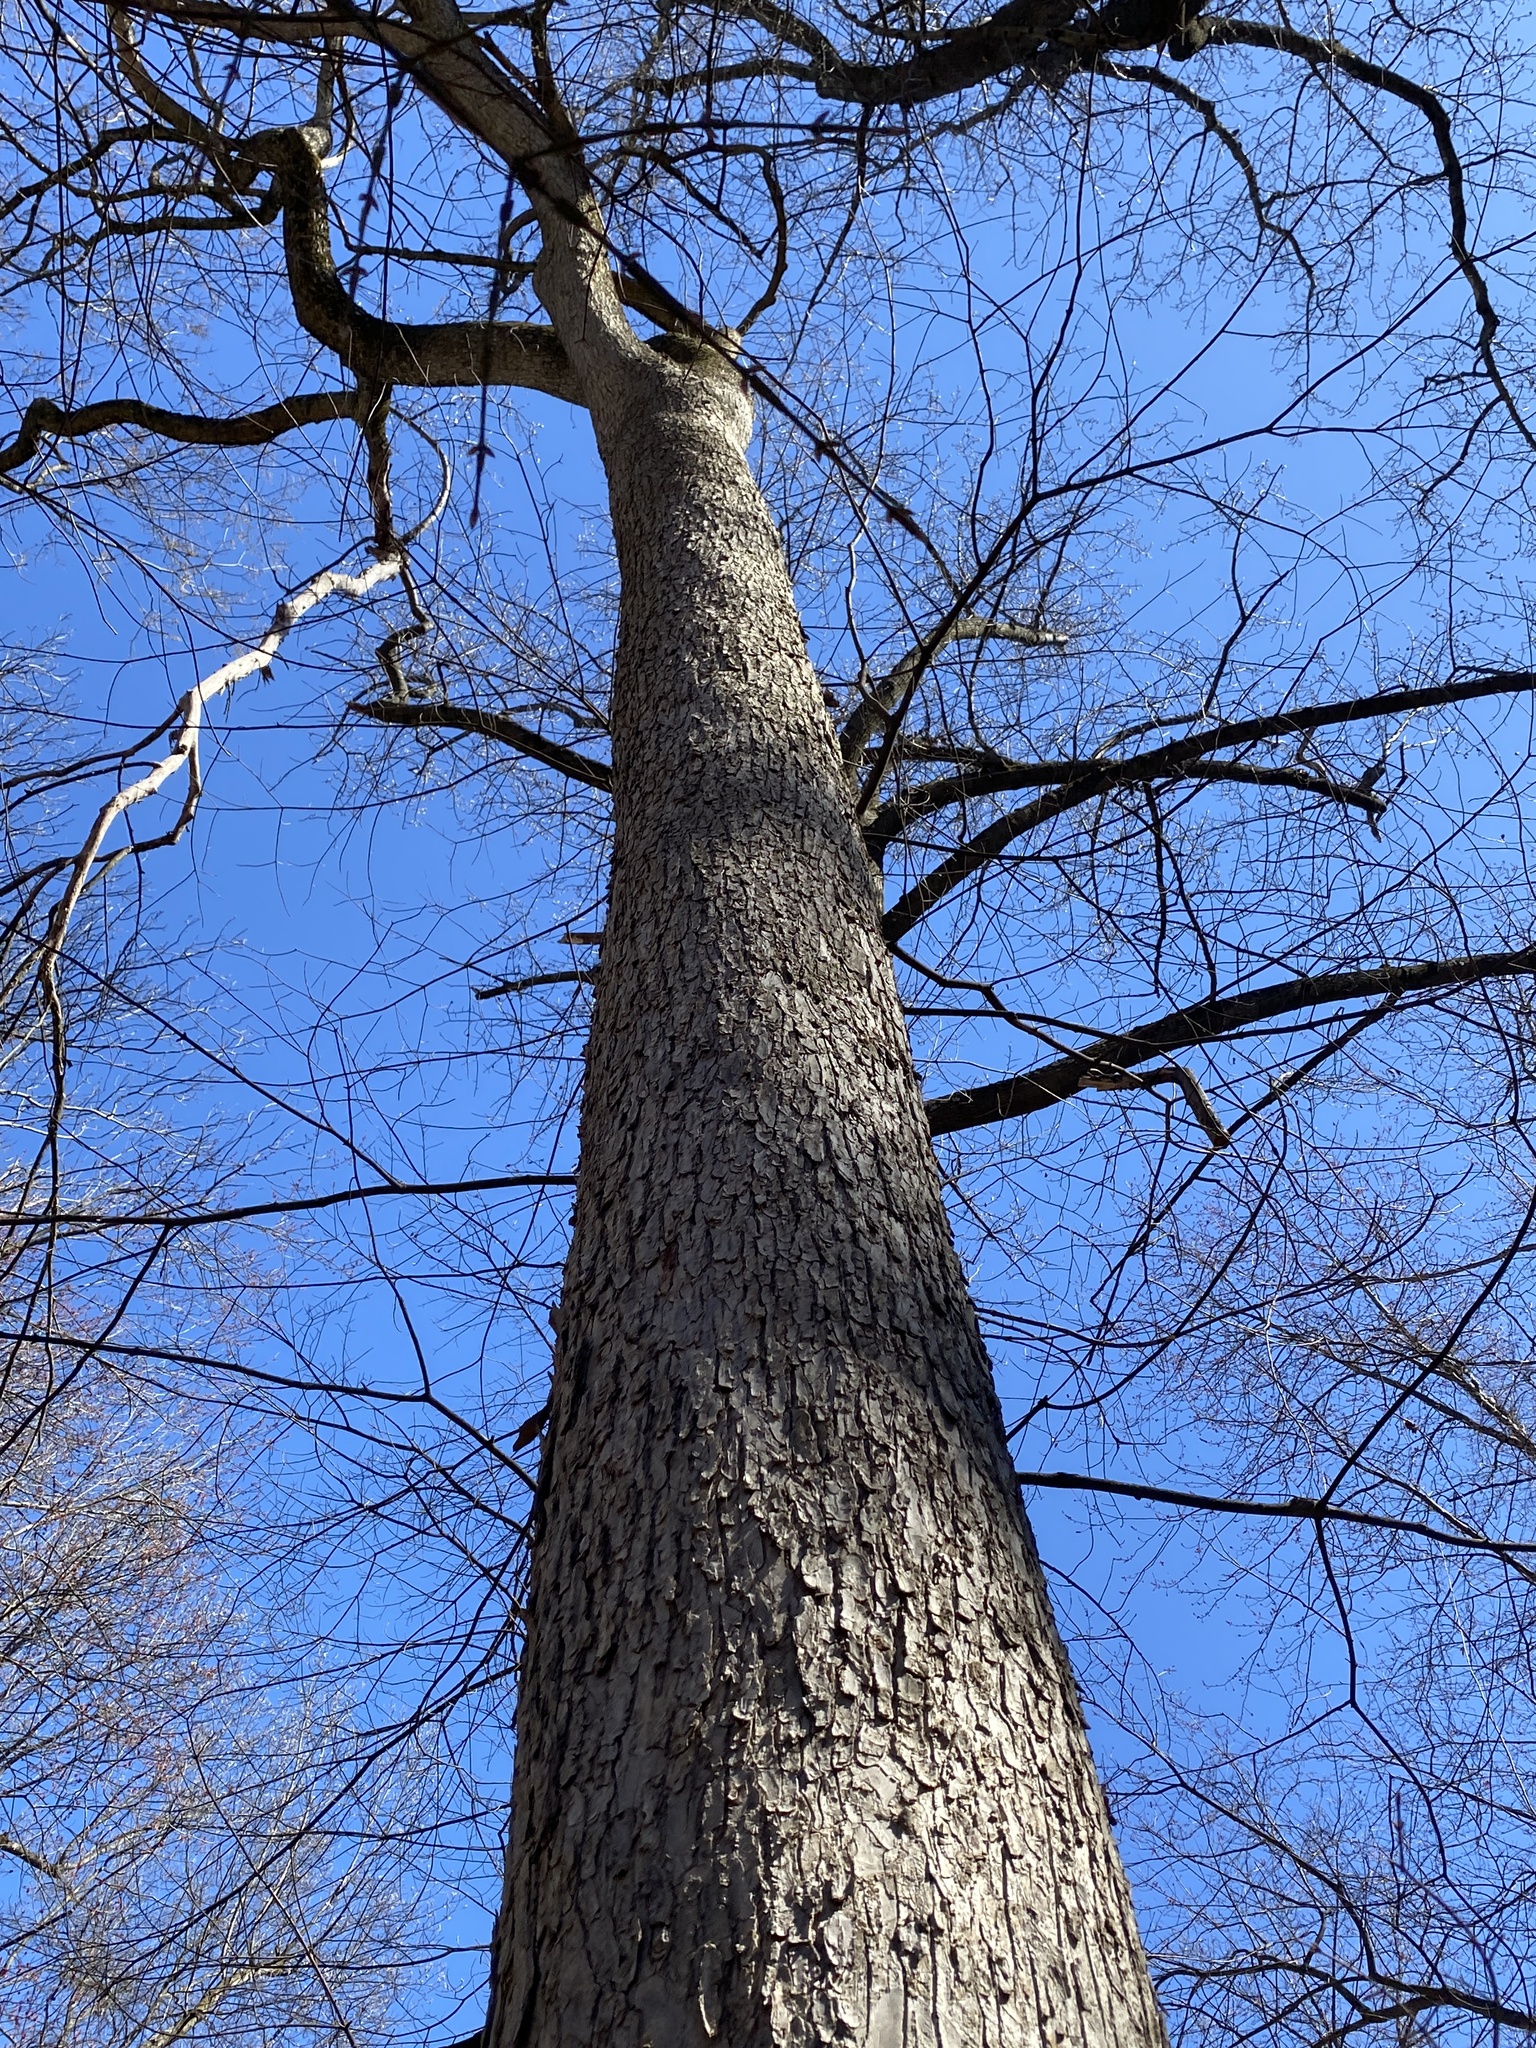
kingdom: Plantae
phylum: Tracheophyta
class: Magnoliopsida
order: Fagales
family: Fagaceae
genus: Quercus
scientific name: Quercus alba
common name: White oak
